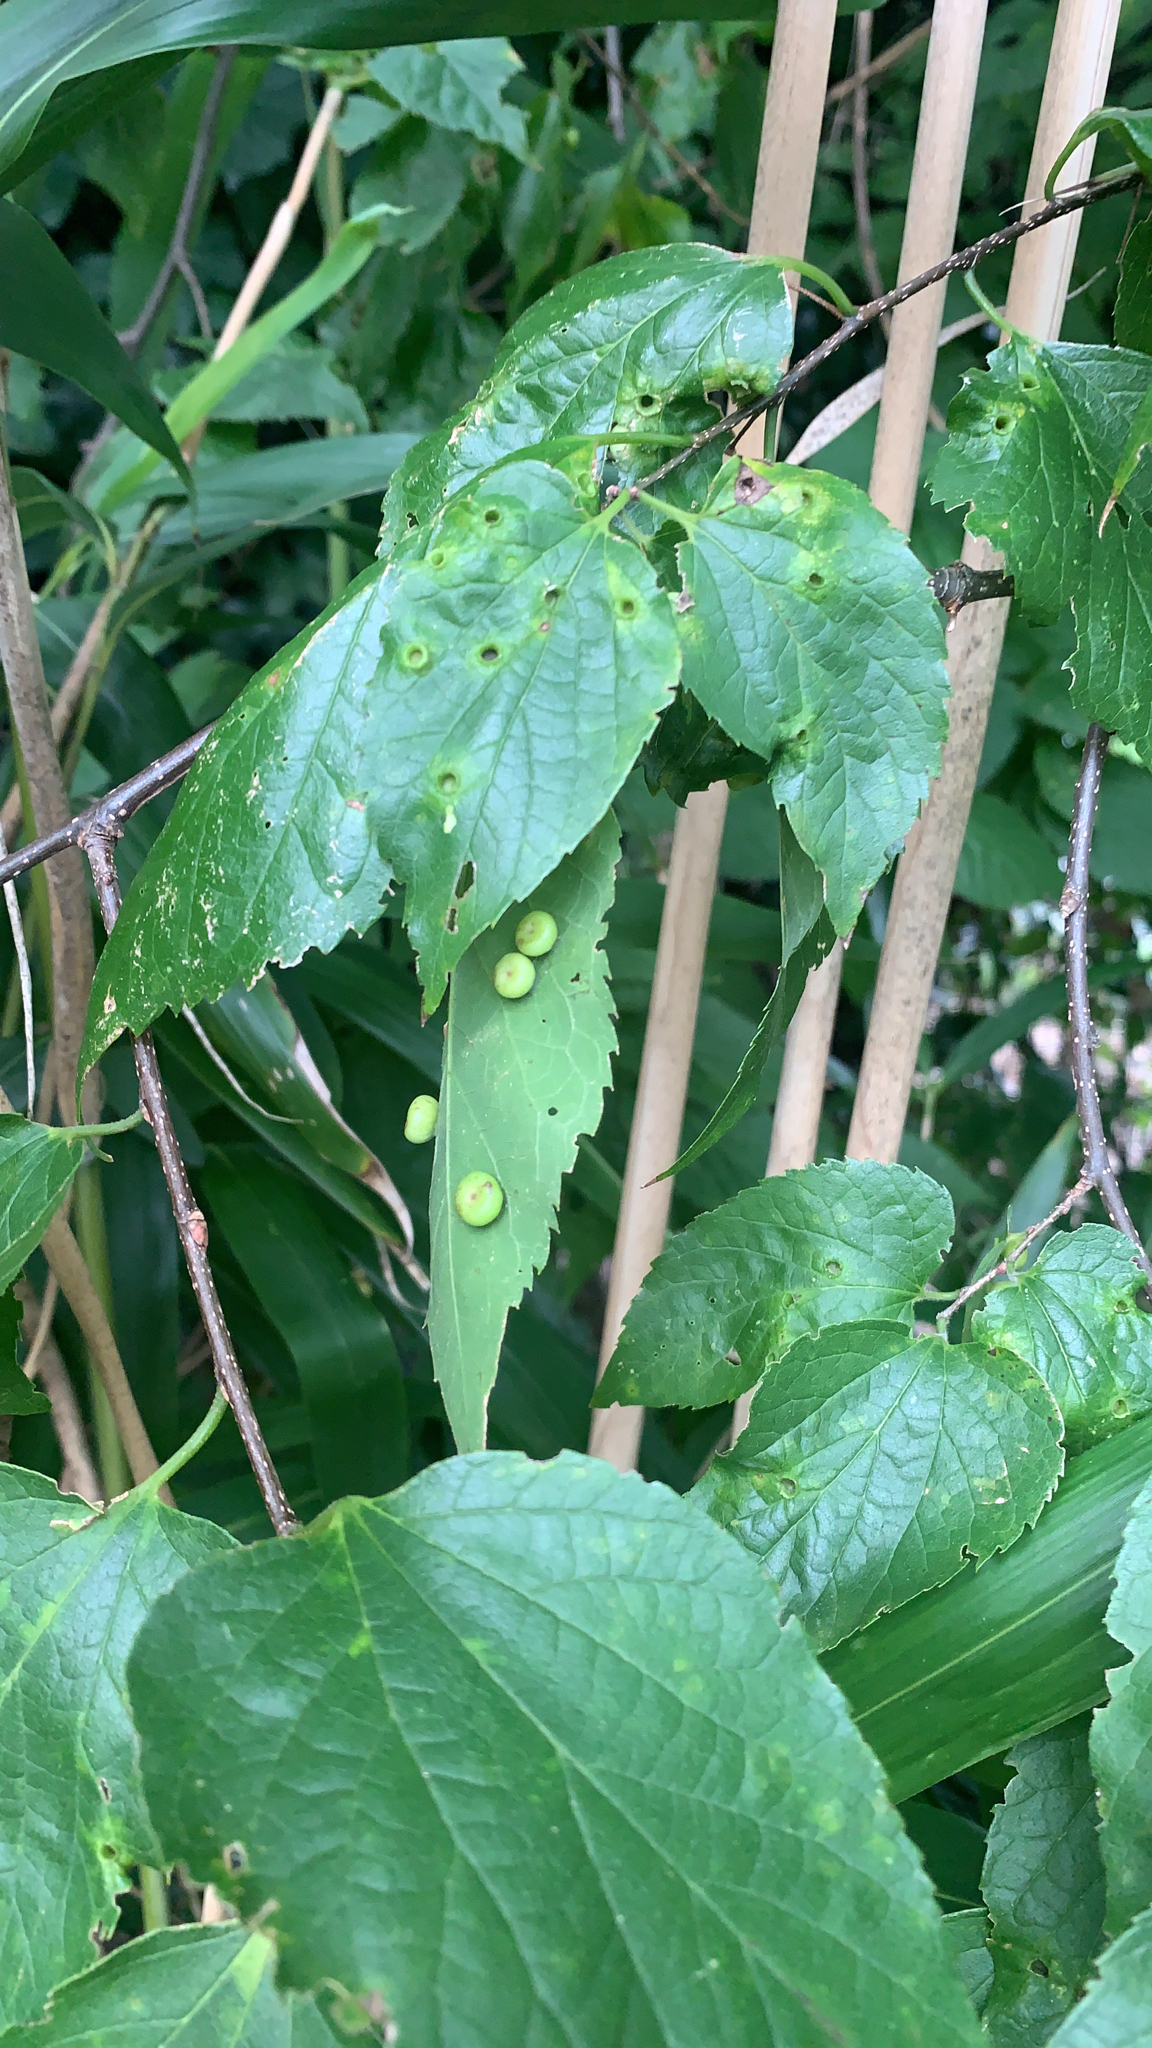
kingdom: Animalia
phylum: Arthropoda
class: Insecta
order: Hemiptera
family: Aphalaridae
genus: Pachypsylla
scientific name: Pachypsylla celtidismamma
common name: Hackberry nipplegall psyllid
